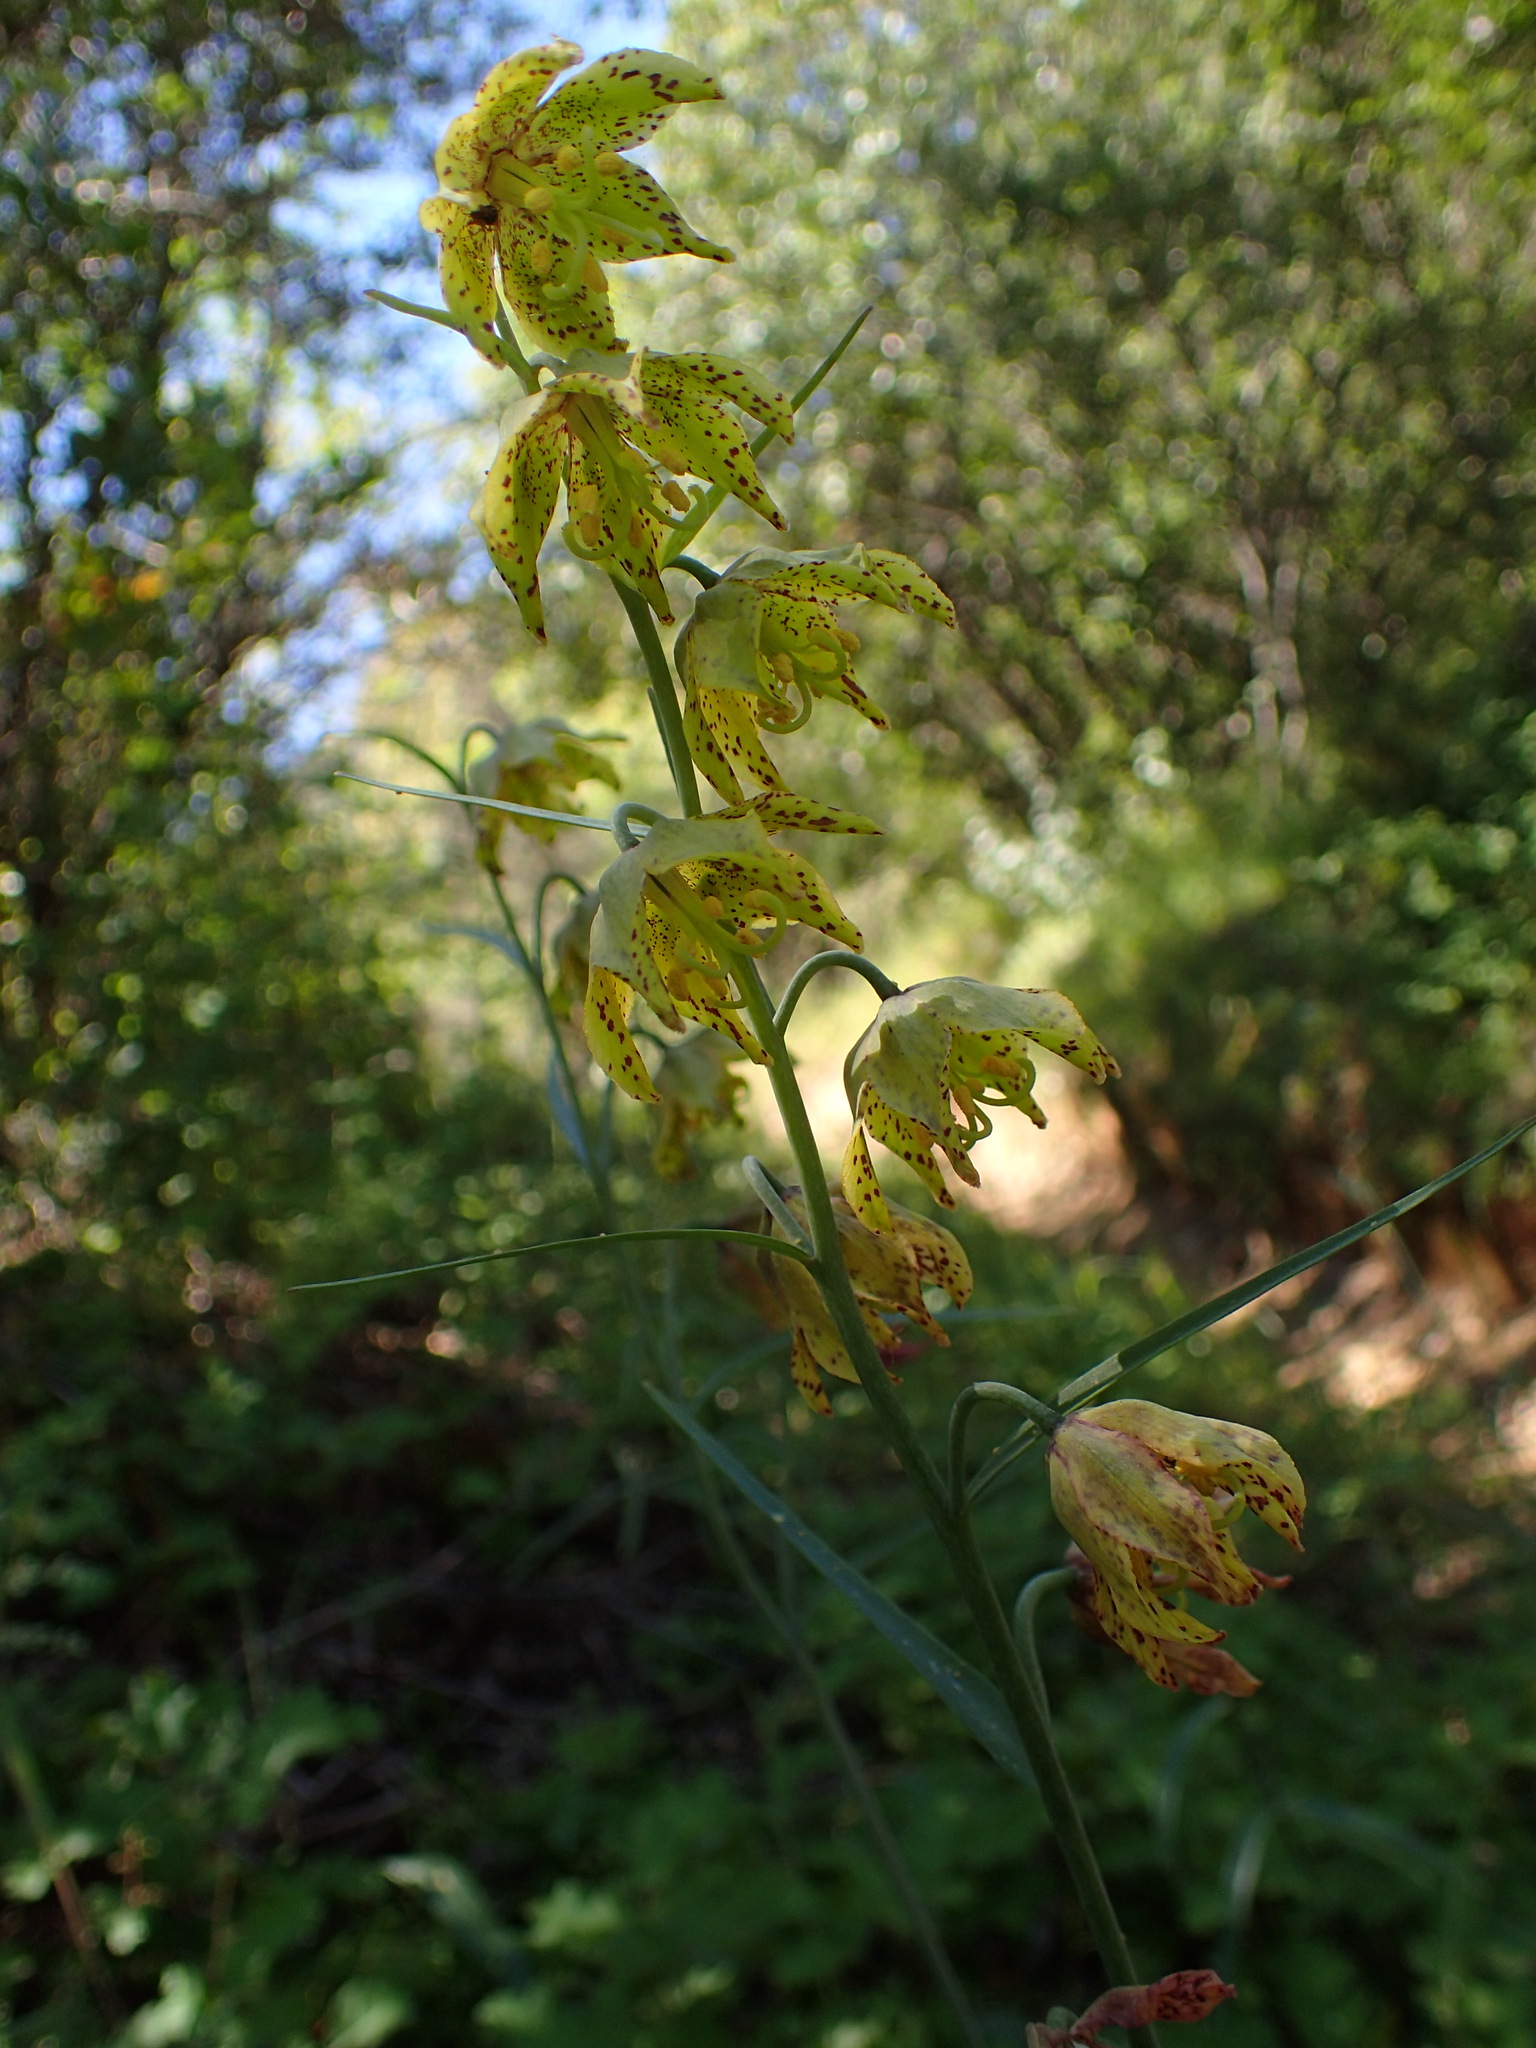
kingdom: Plantae
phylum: Tracheophyta
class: Liliopsida
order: Liliales
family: Liliaceae
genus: Fritillaria
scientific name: Fritillaria ojaiensis
